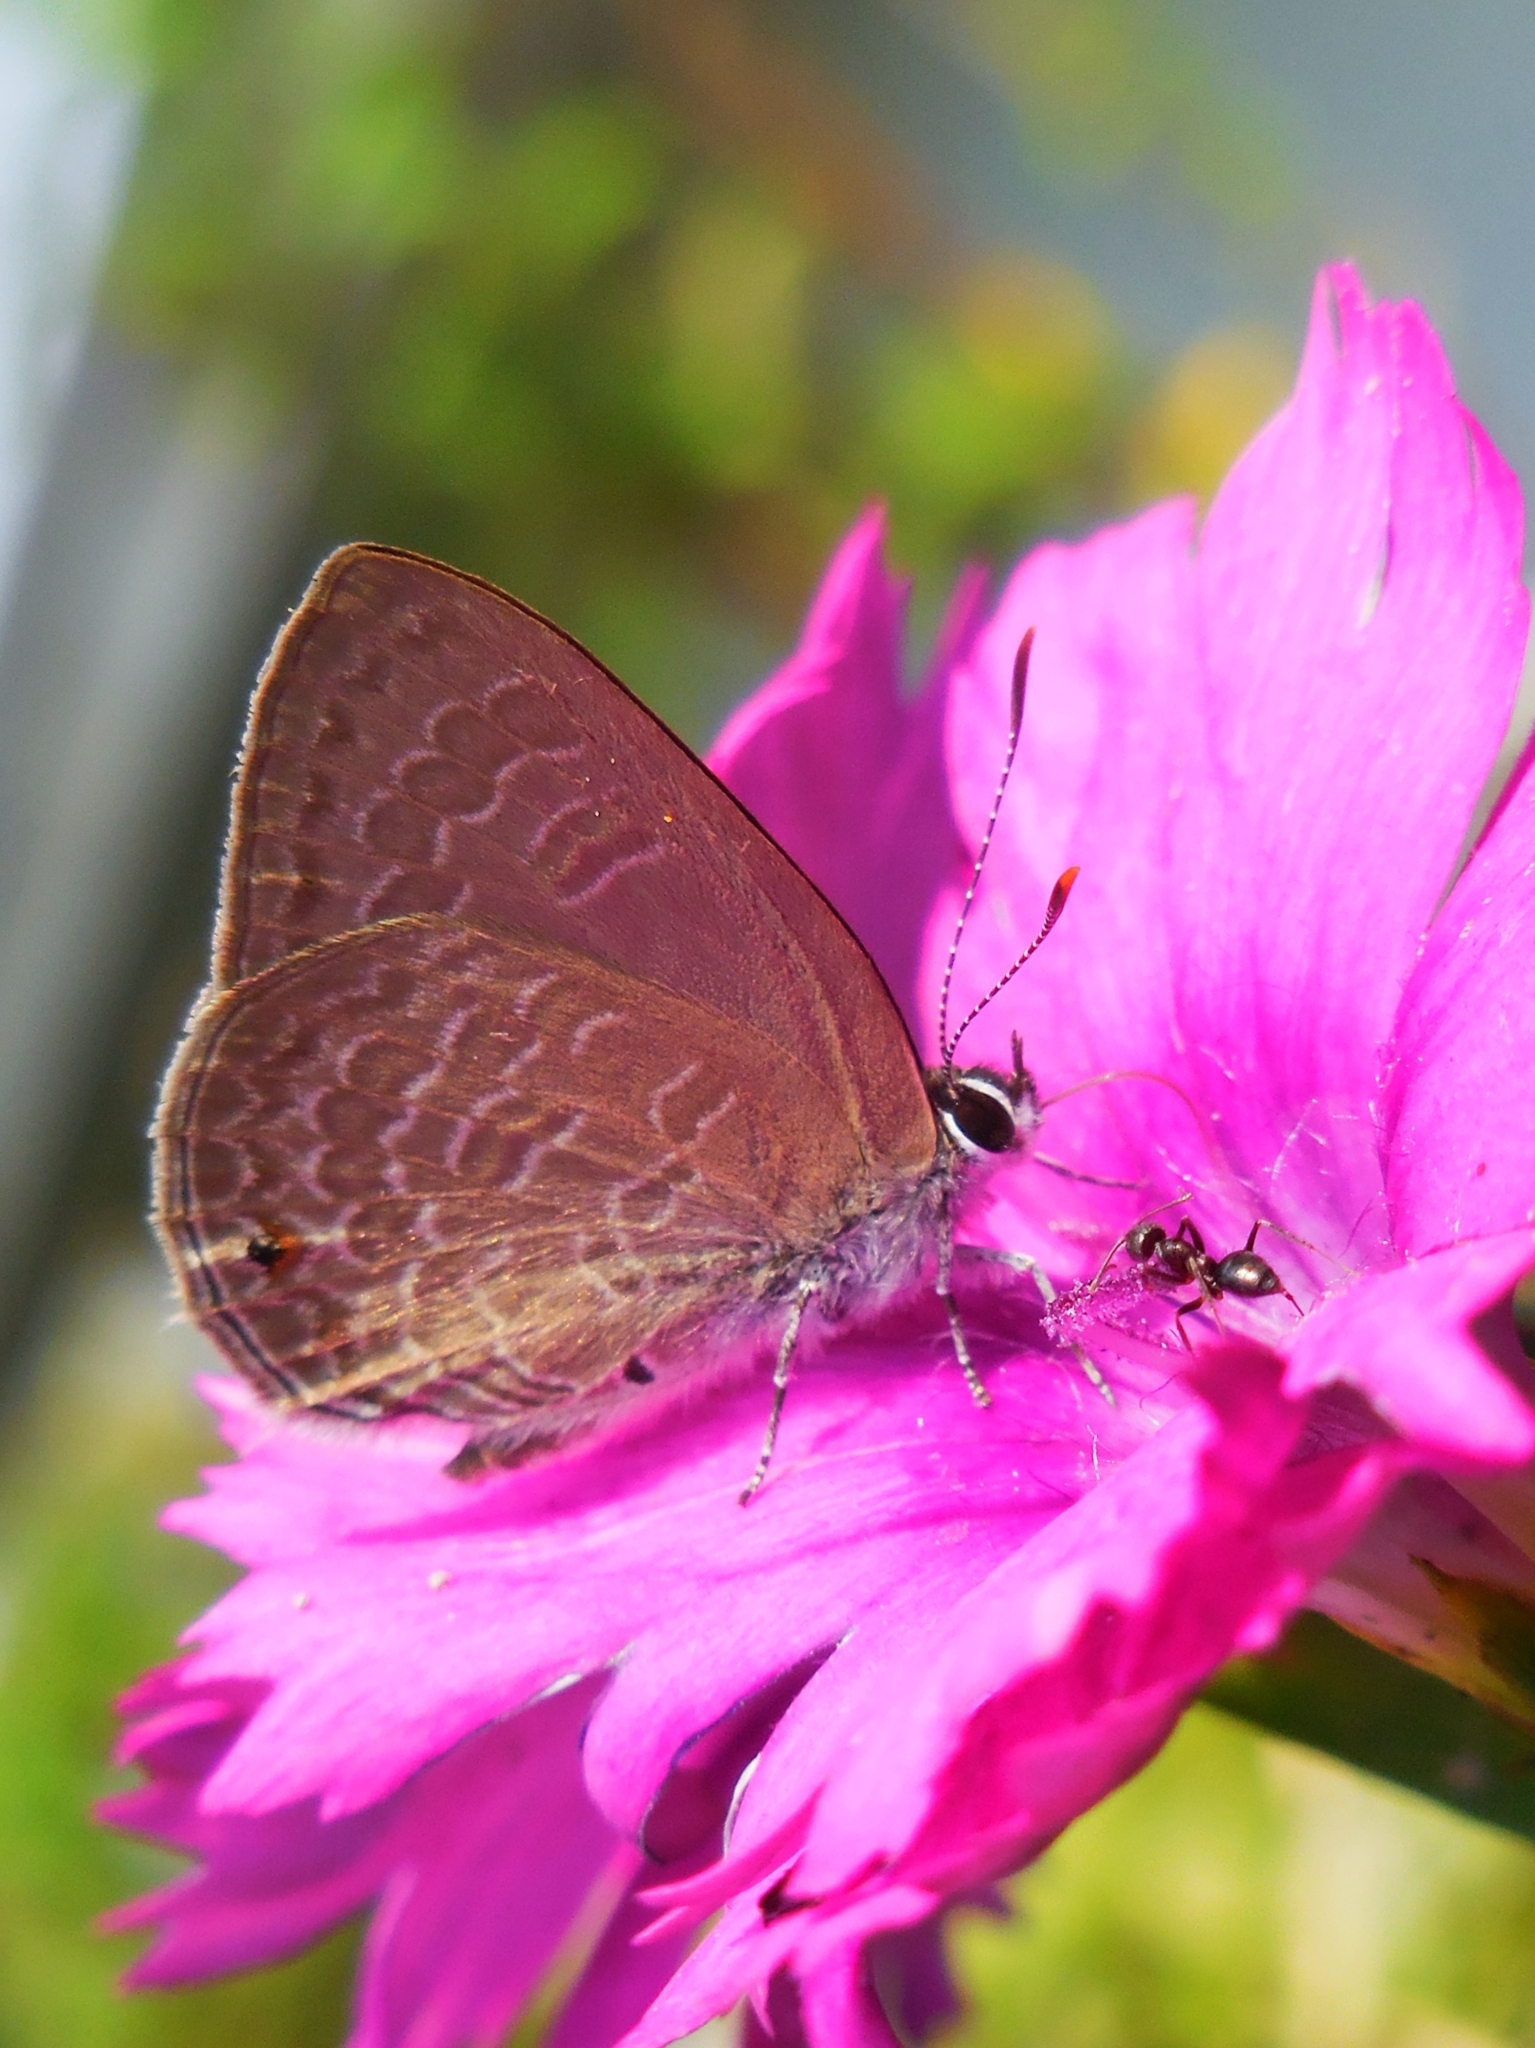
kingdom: Animalia
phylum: Arthropoda
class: Insecta
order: Lepidoptera
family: Lycaenidae
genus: Anthene
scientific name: Anthene emolus
